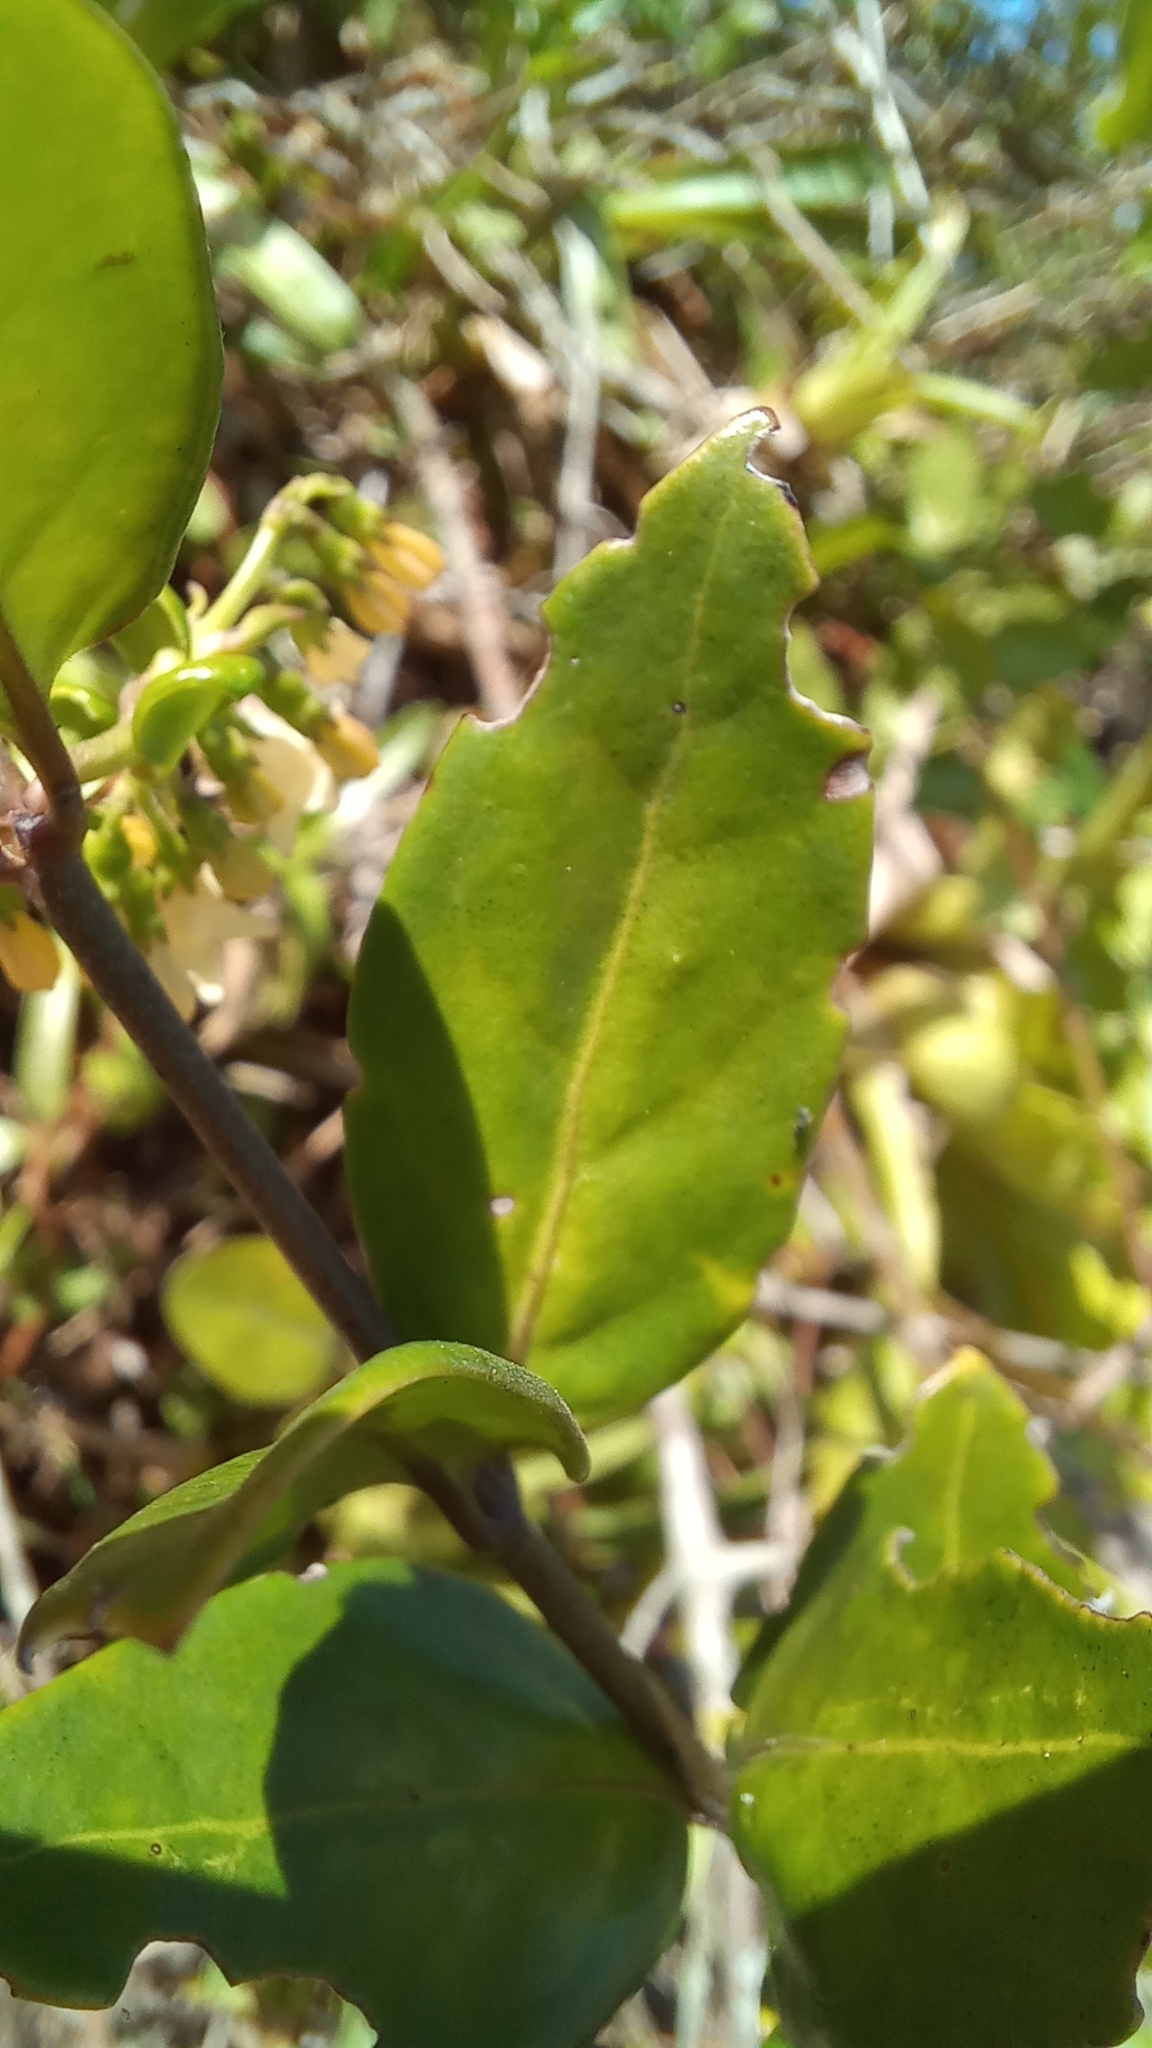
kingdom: Plantae
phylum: Tracheophyta
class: Magnoliopsida
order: Gentianales
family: Rubiaceae
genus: Chiococca
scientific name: Chiococca alba
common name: Snowberry
